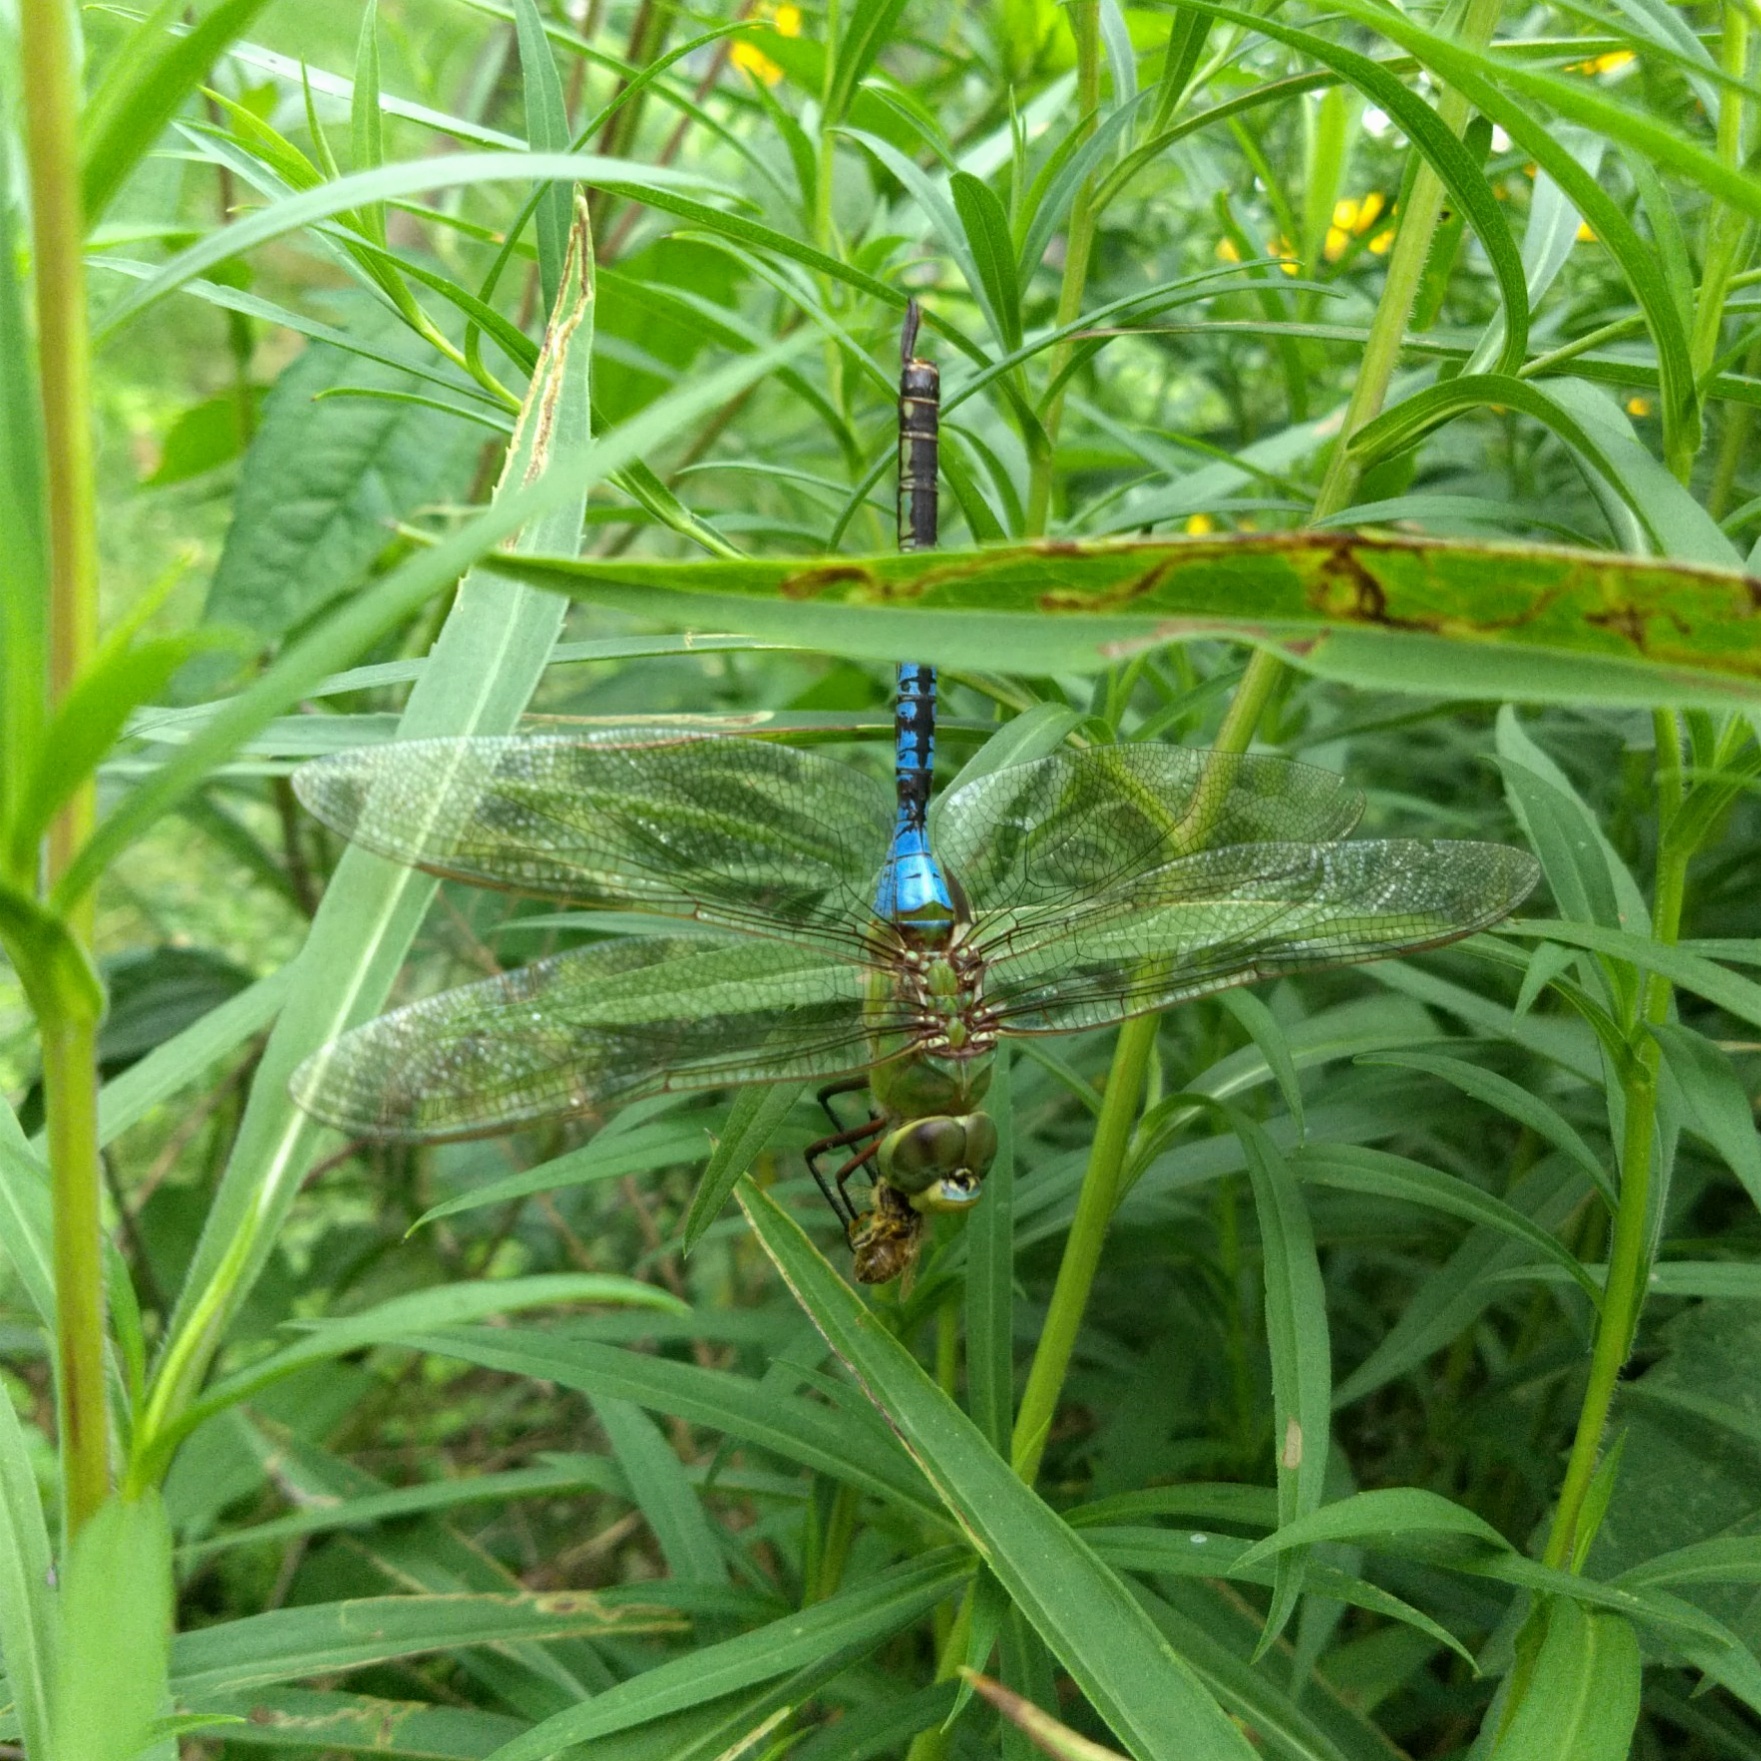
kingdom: Animalia
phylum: Arthropoda
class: Insecta
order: Odonata
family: Aeshnidae
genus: Anax
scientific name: Anax junius
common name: Common green darner
